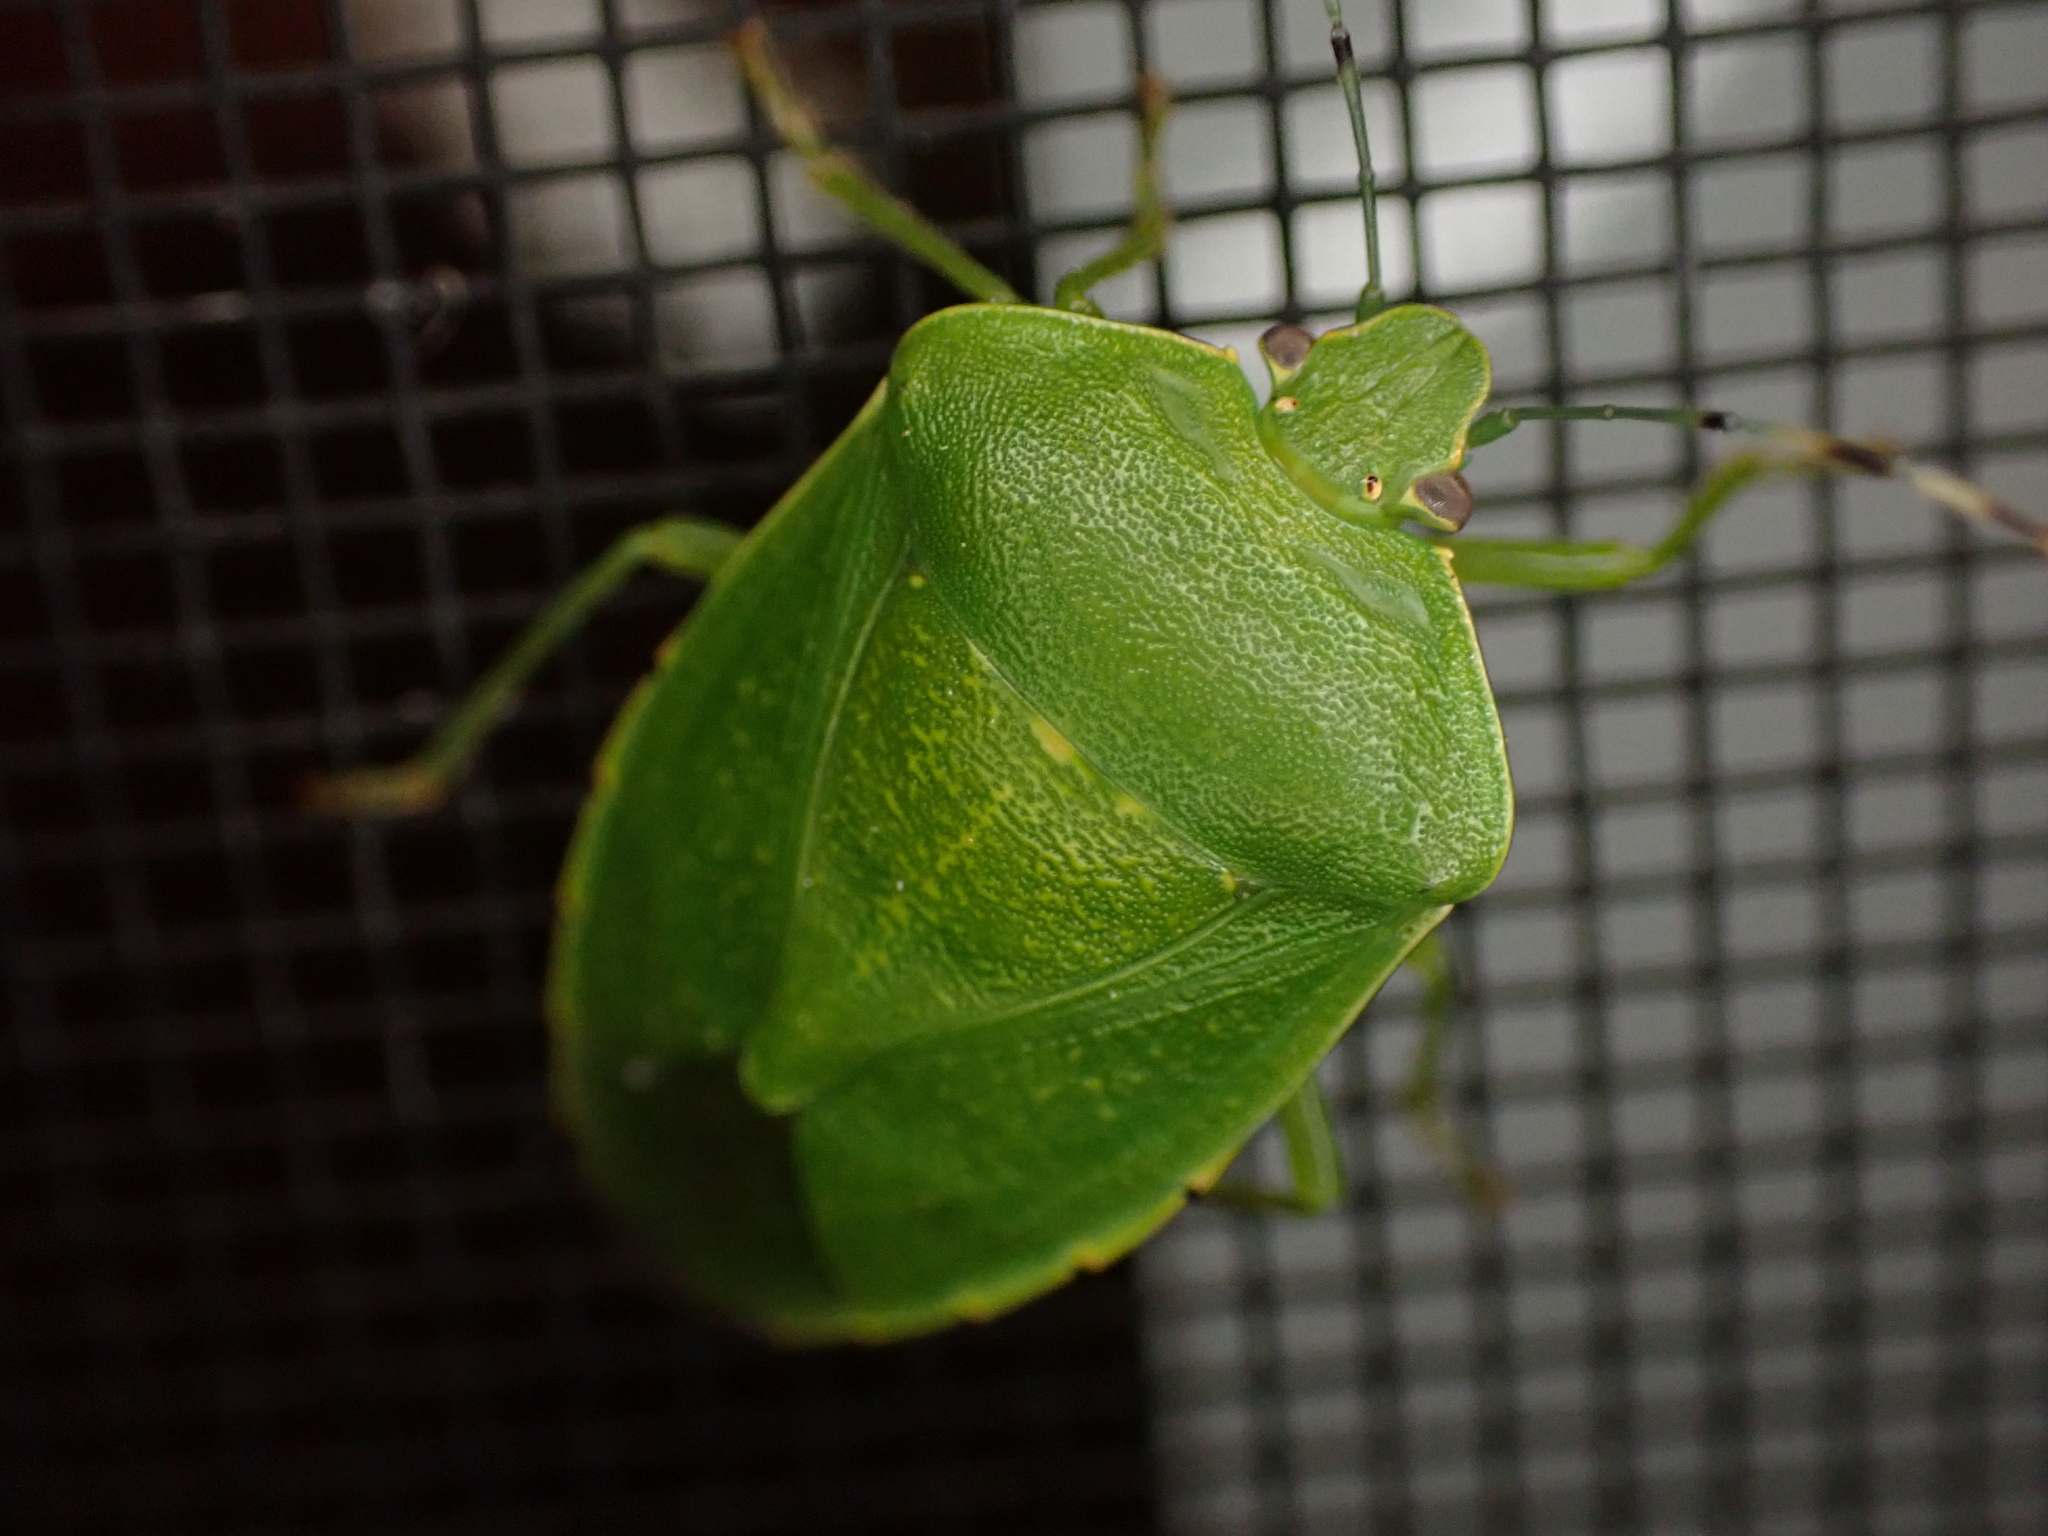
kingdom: Animalia
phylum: Arthropoda
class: Insecta
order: Hemiptera
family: Pentatomidae
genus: Chinavia
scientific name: Chinavia hilaris
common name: Green stink bug
